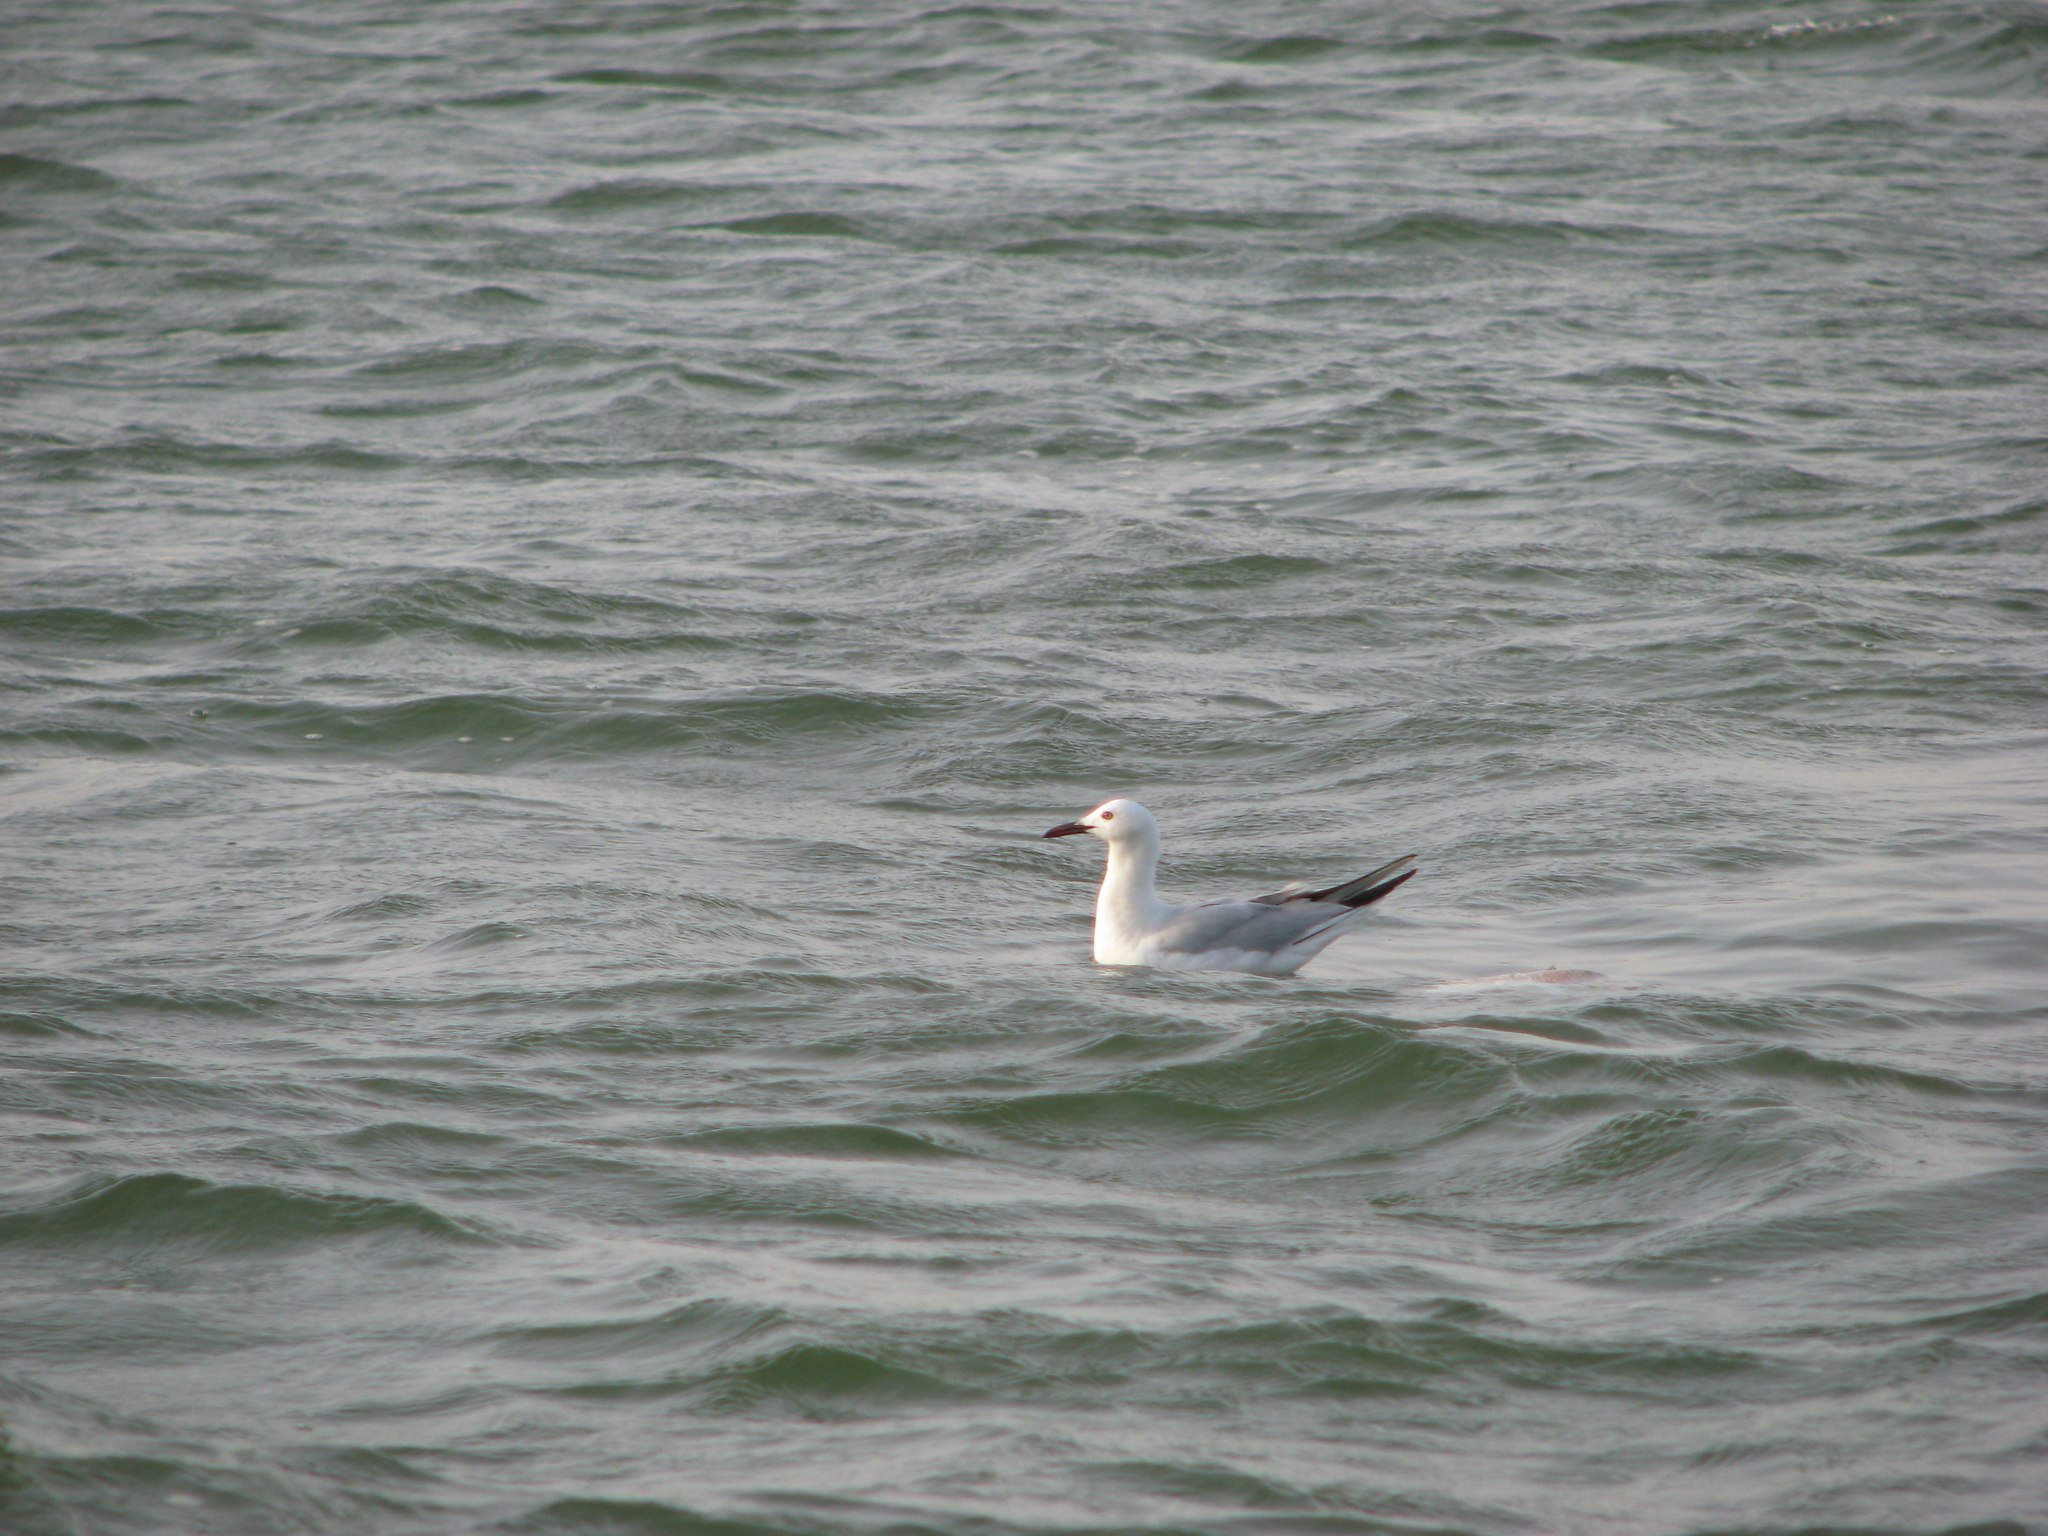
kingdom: Animalia
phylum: Chordata
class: Aves
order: Charadriiformes
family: Laridae
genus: Chroicocephalus
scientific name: Chroicocephalus genei
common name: Slender-billed gull
